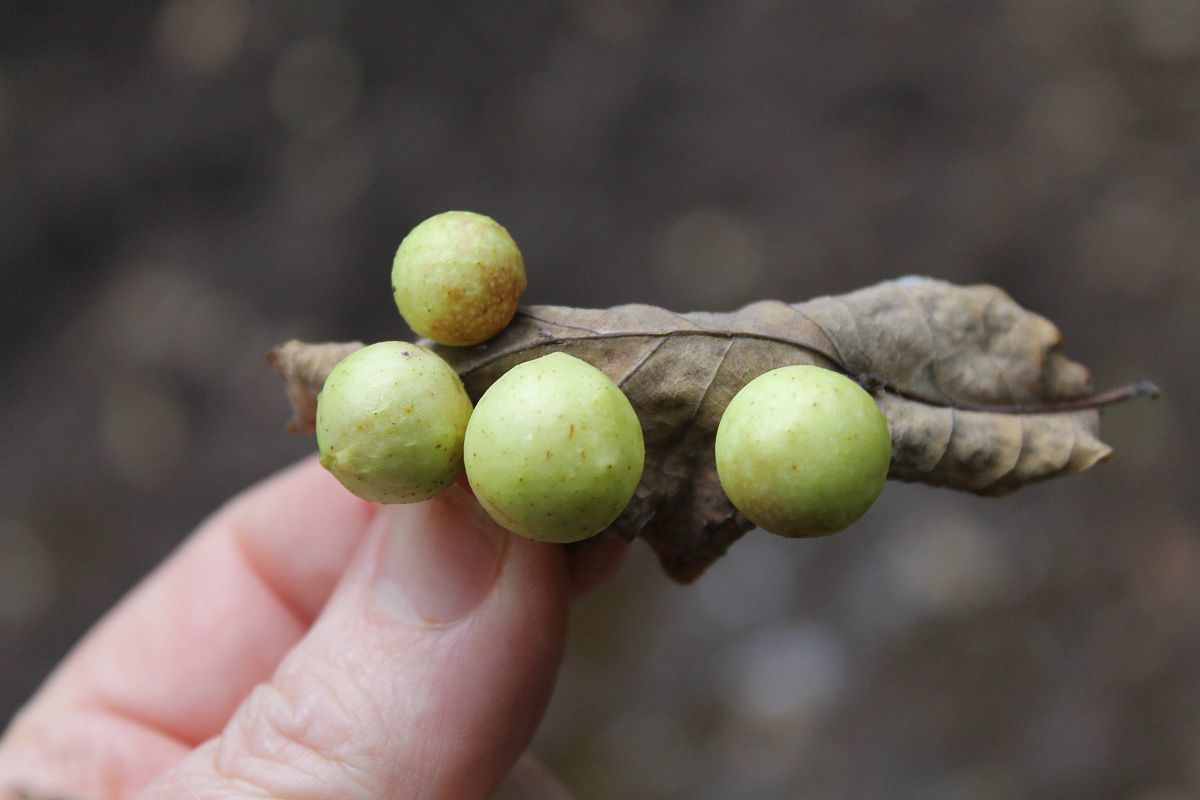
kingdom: Animalia
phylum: Arthropoda
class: Insecta
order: Hymenoptera
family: Cynipidae
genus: Cynips
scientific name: Cynips quercusfolii
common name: Cherry gall
